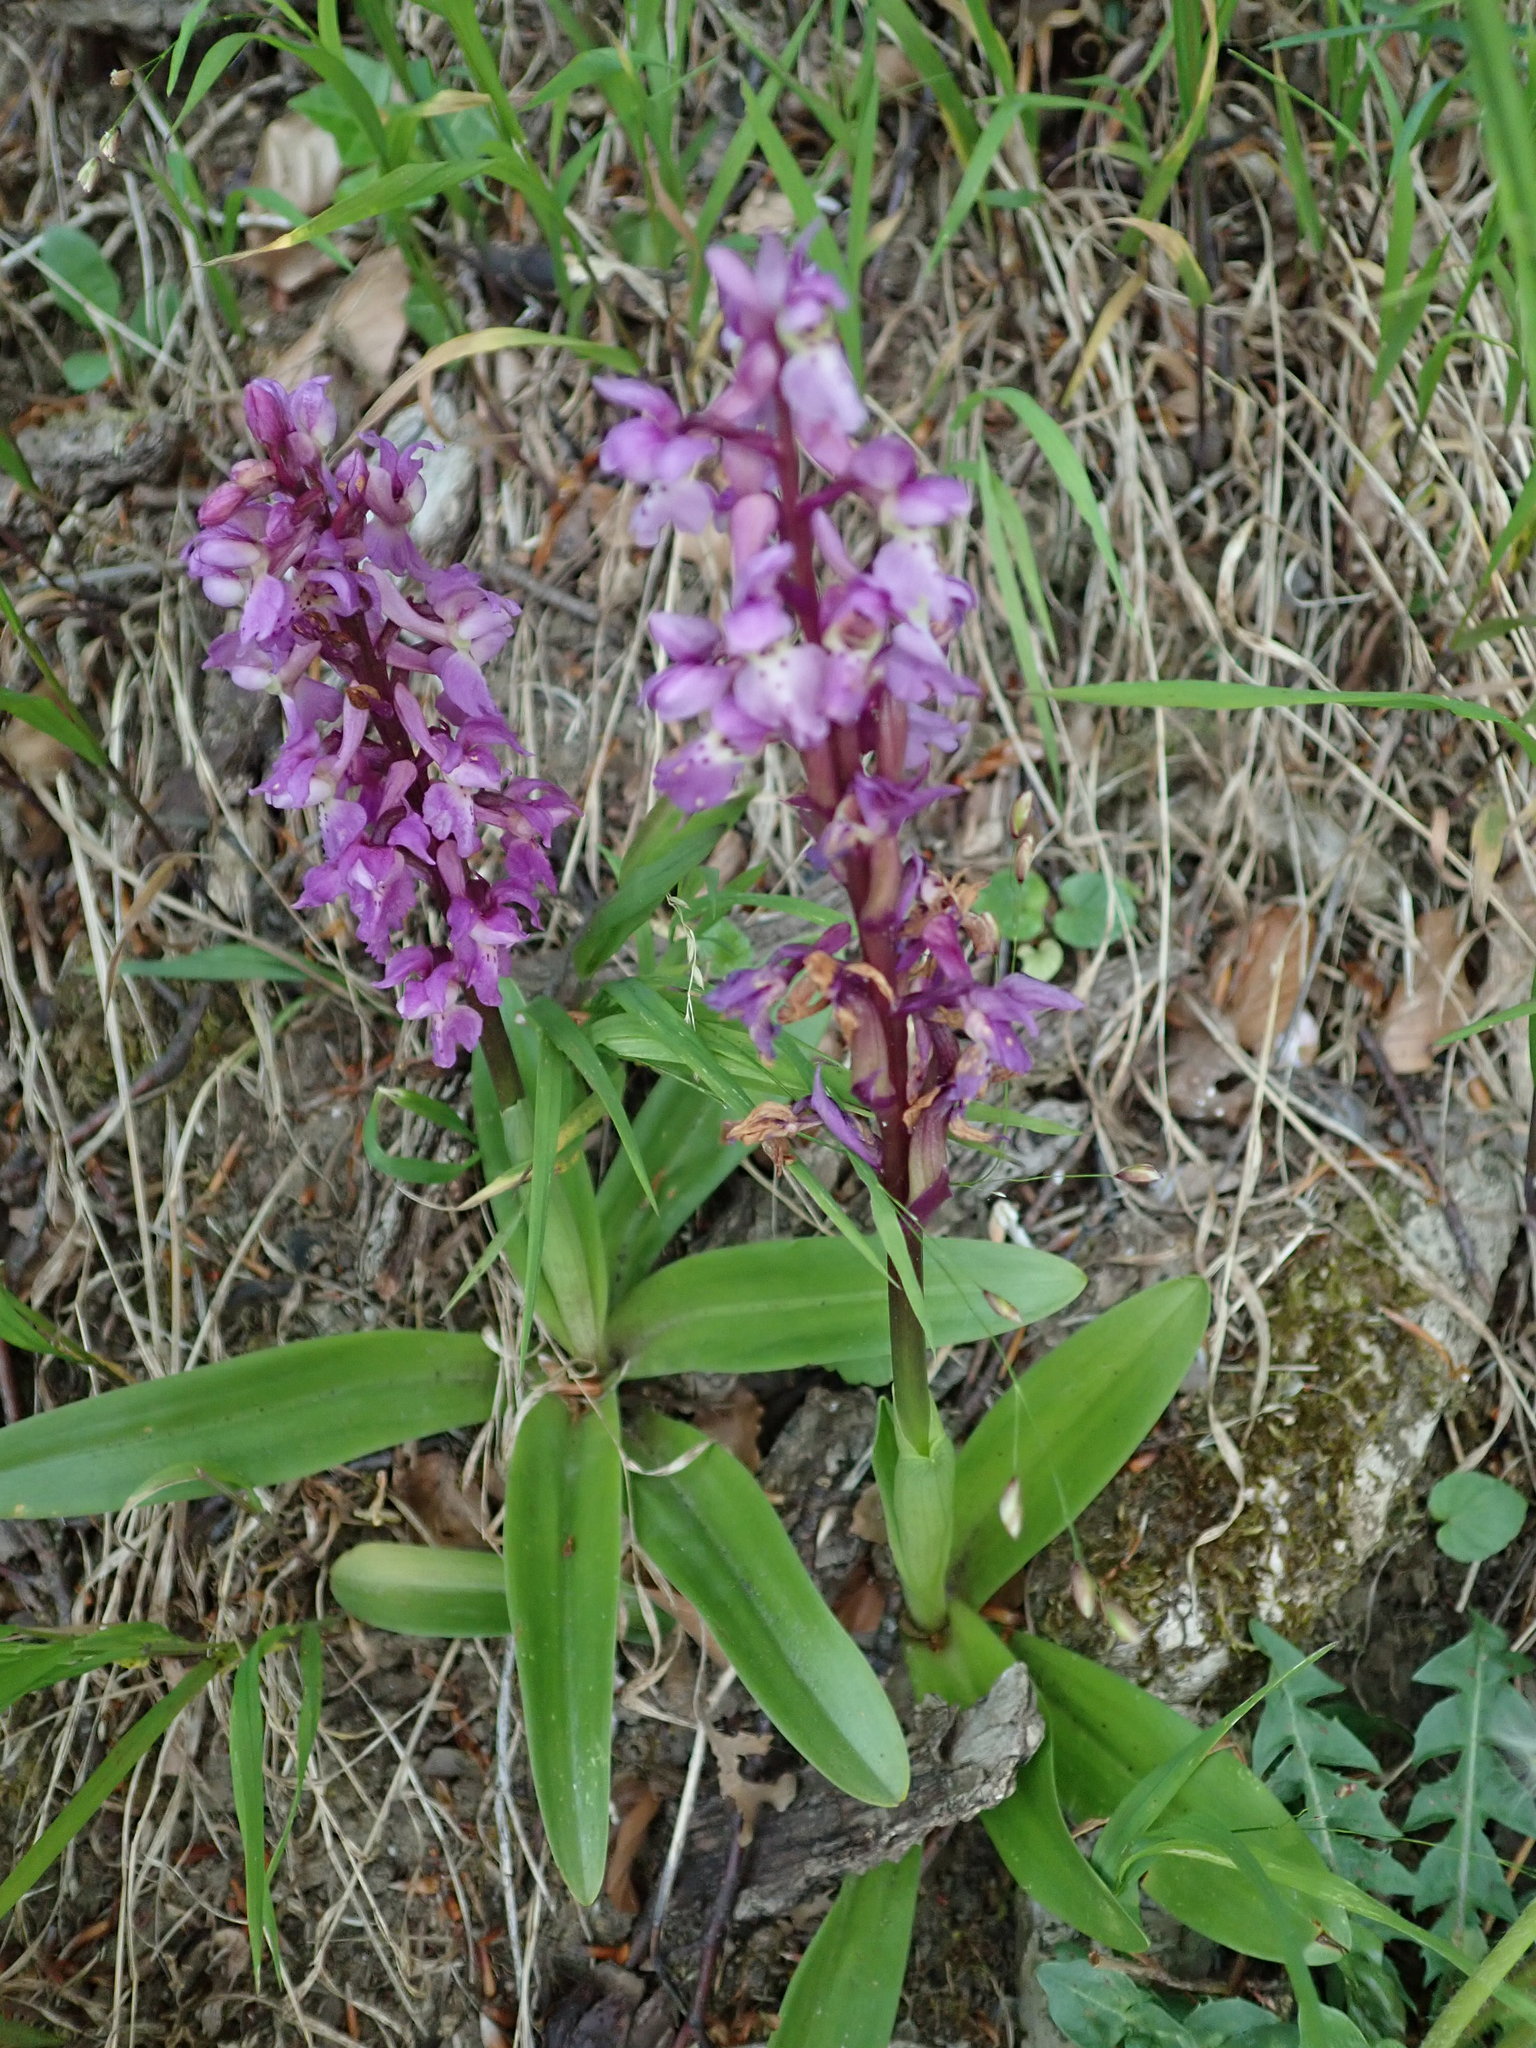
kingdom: Plantae
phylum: Tracheophyta
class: Liliopsida
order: Asparagales
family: Orchidaceae
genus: Orchis
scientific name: Orchis mascula
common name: Early-purple orchid
